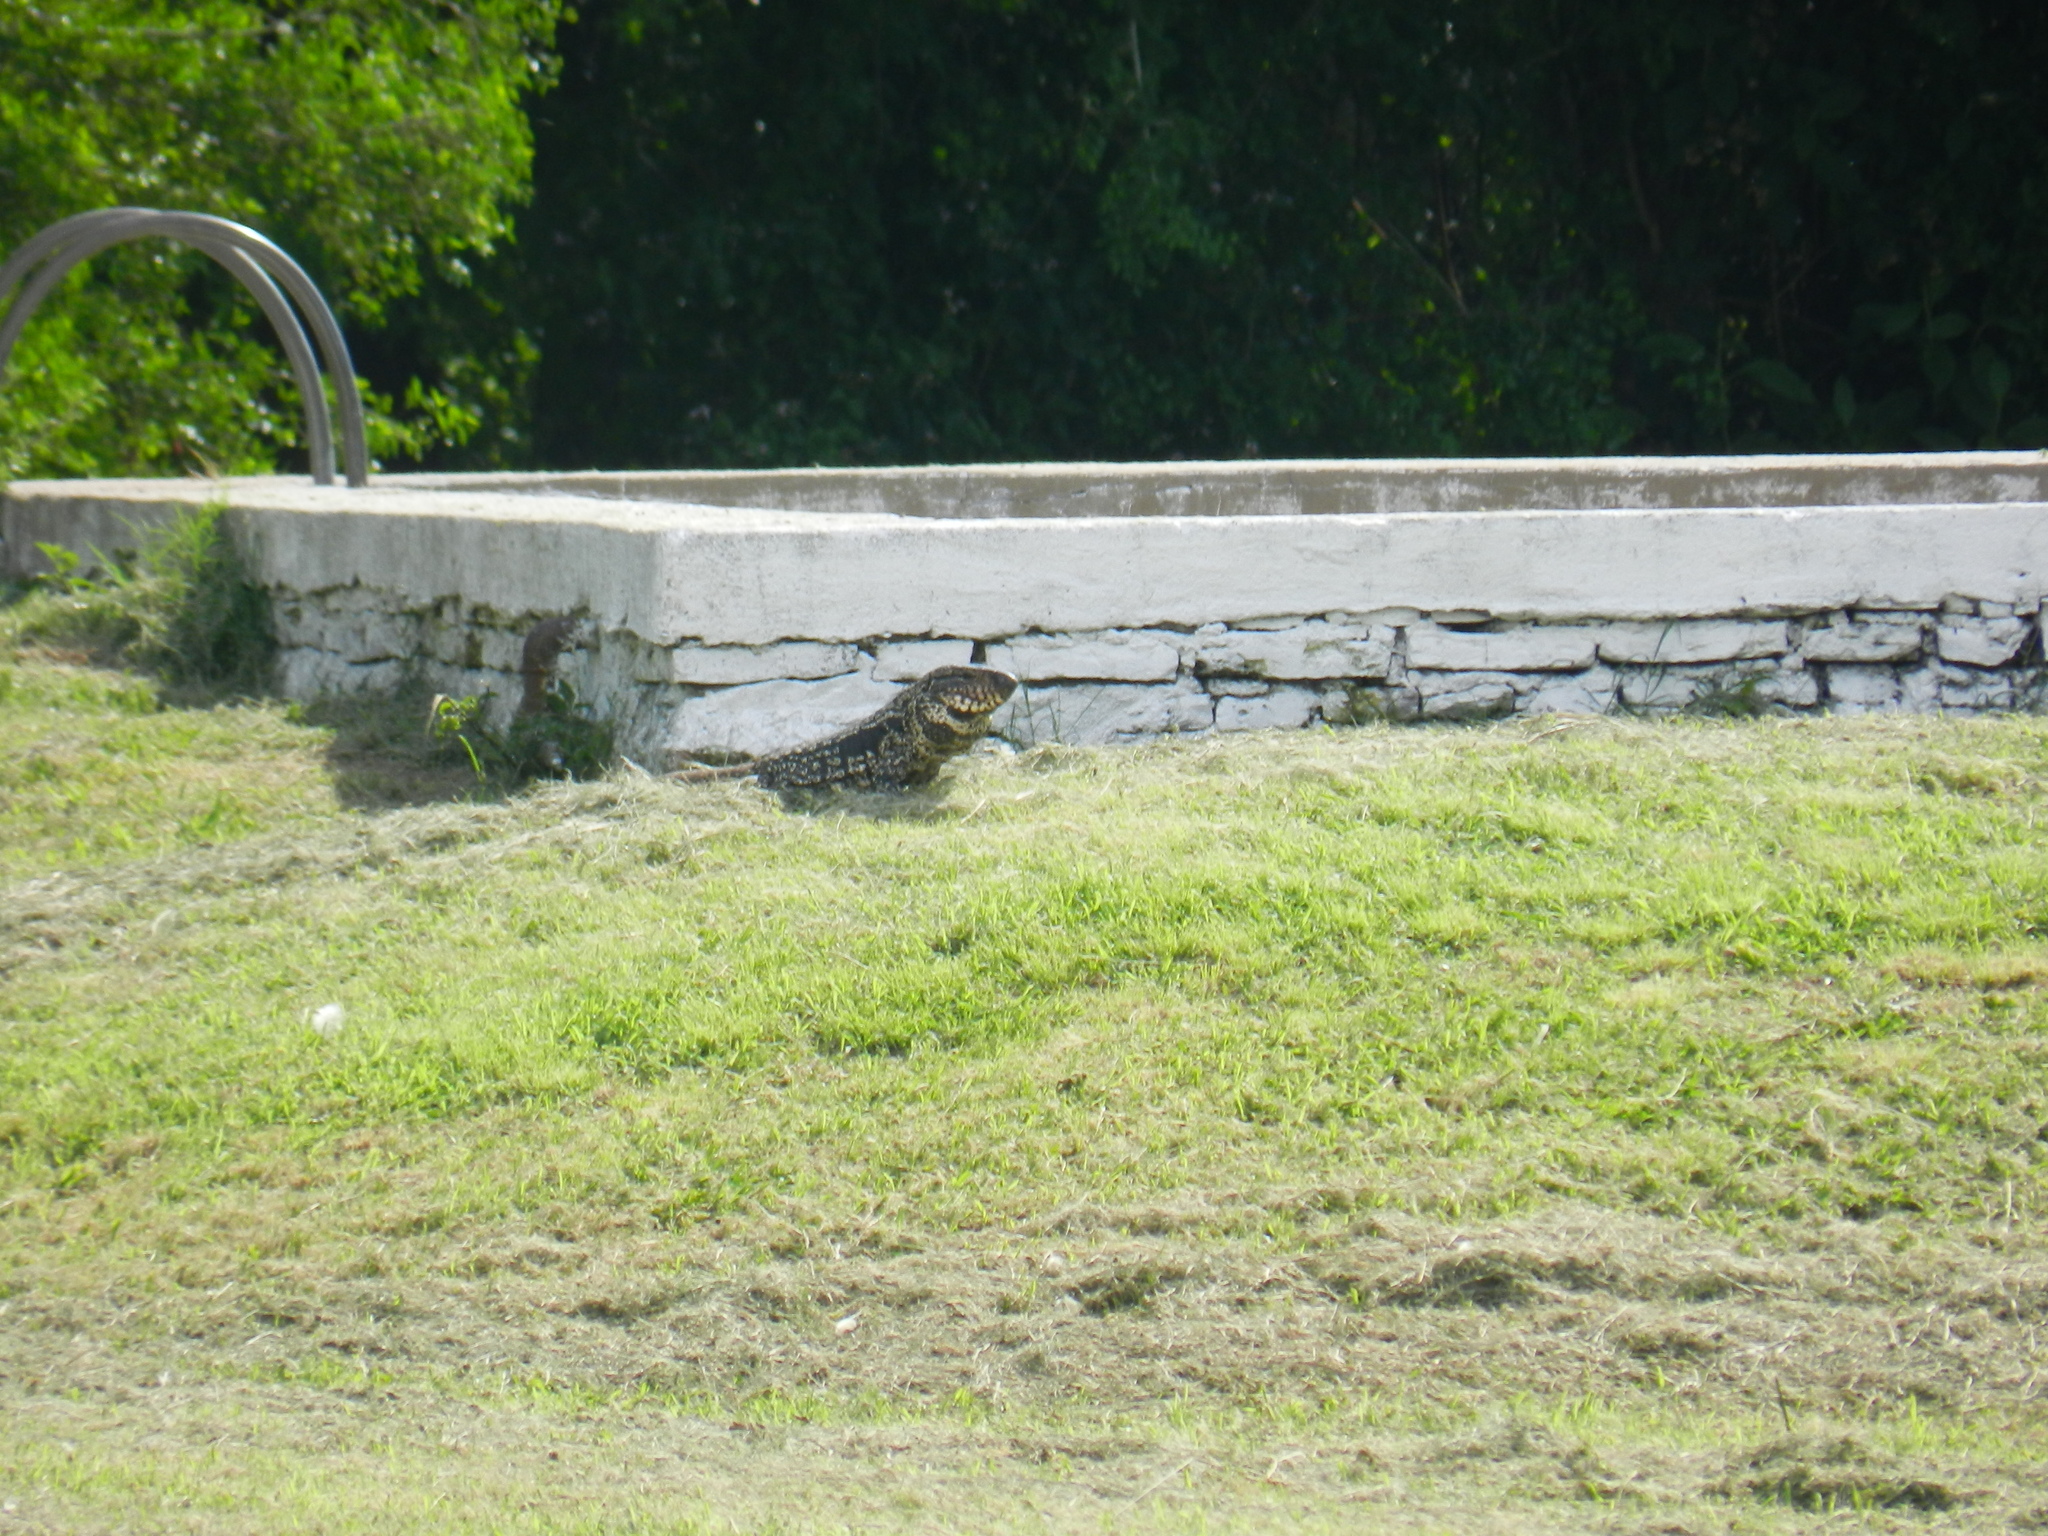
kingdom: Animalia
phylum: Chordata
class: Squamata
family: Teiidae
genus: Salvator
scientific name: Salvator merianae
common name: Argentine black and white tegu
